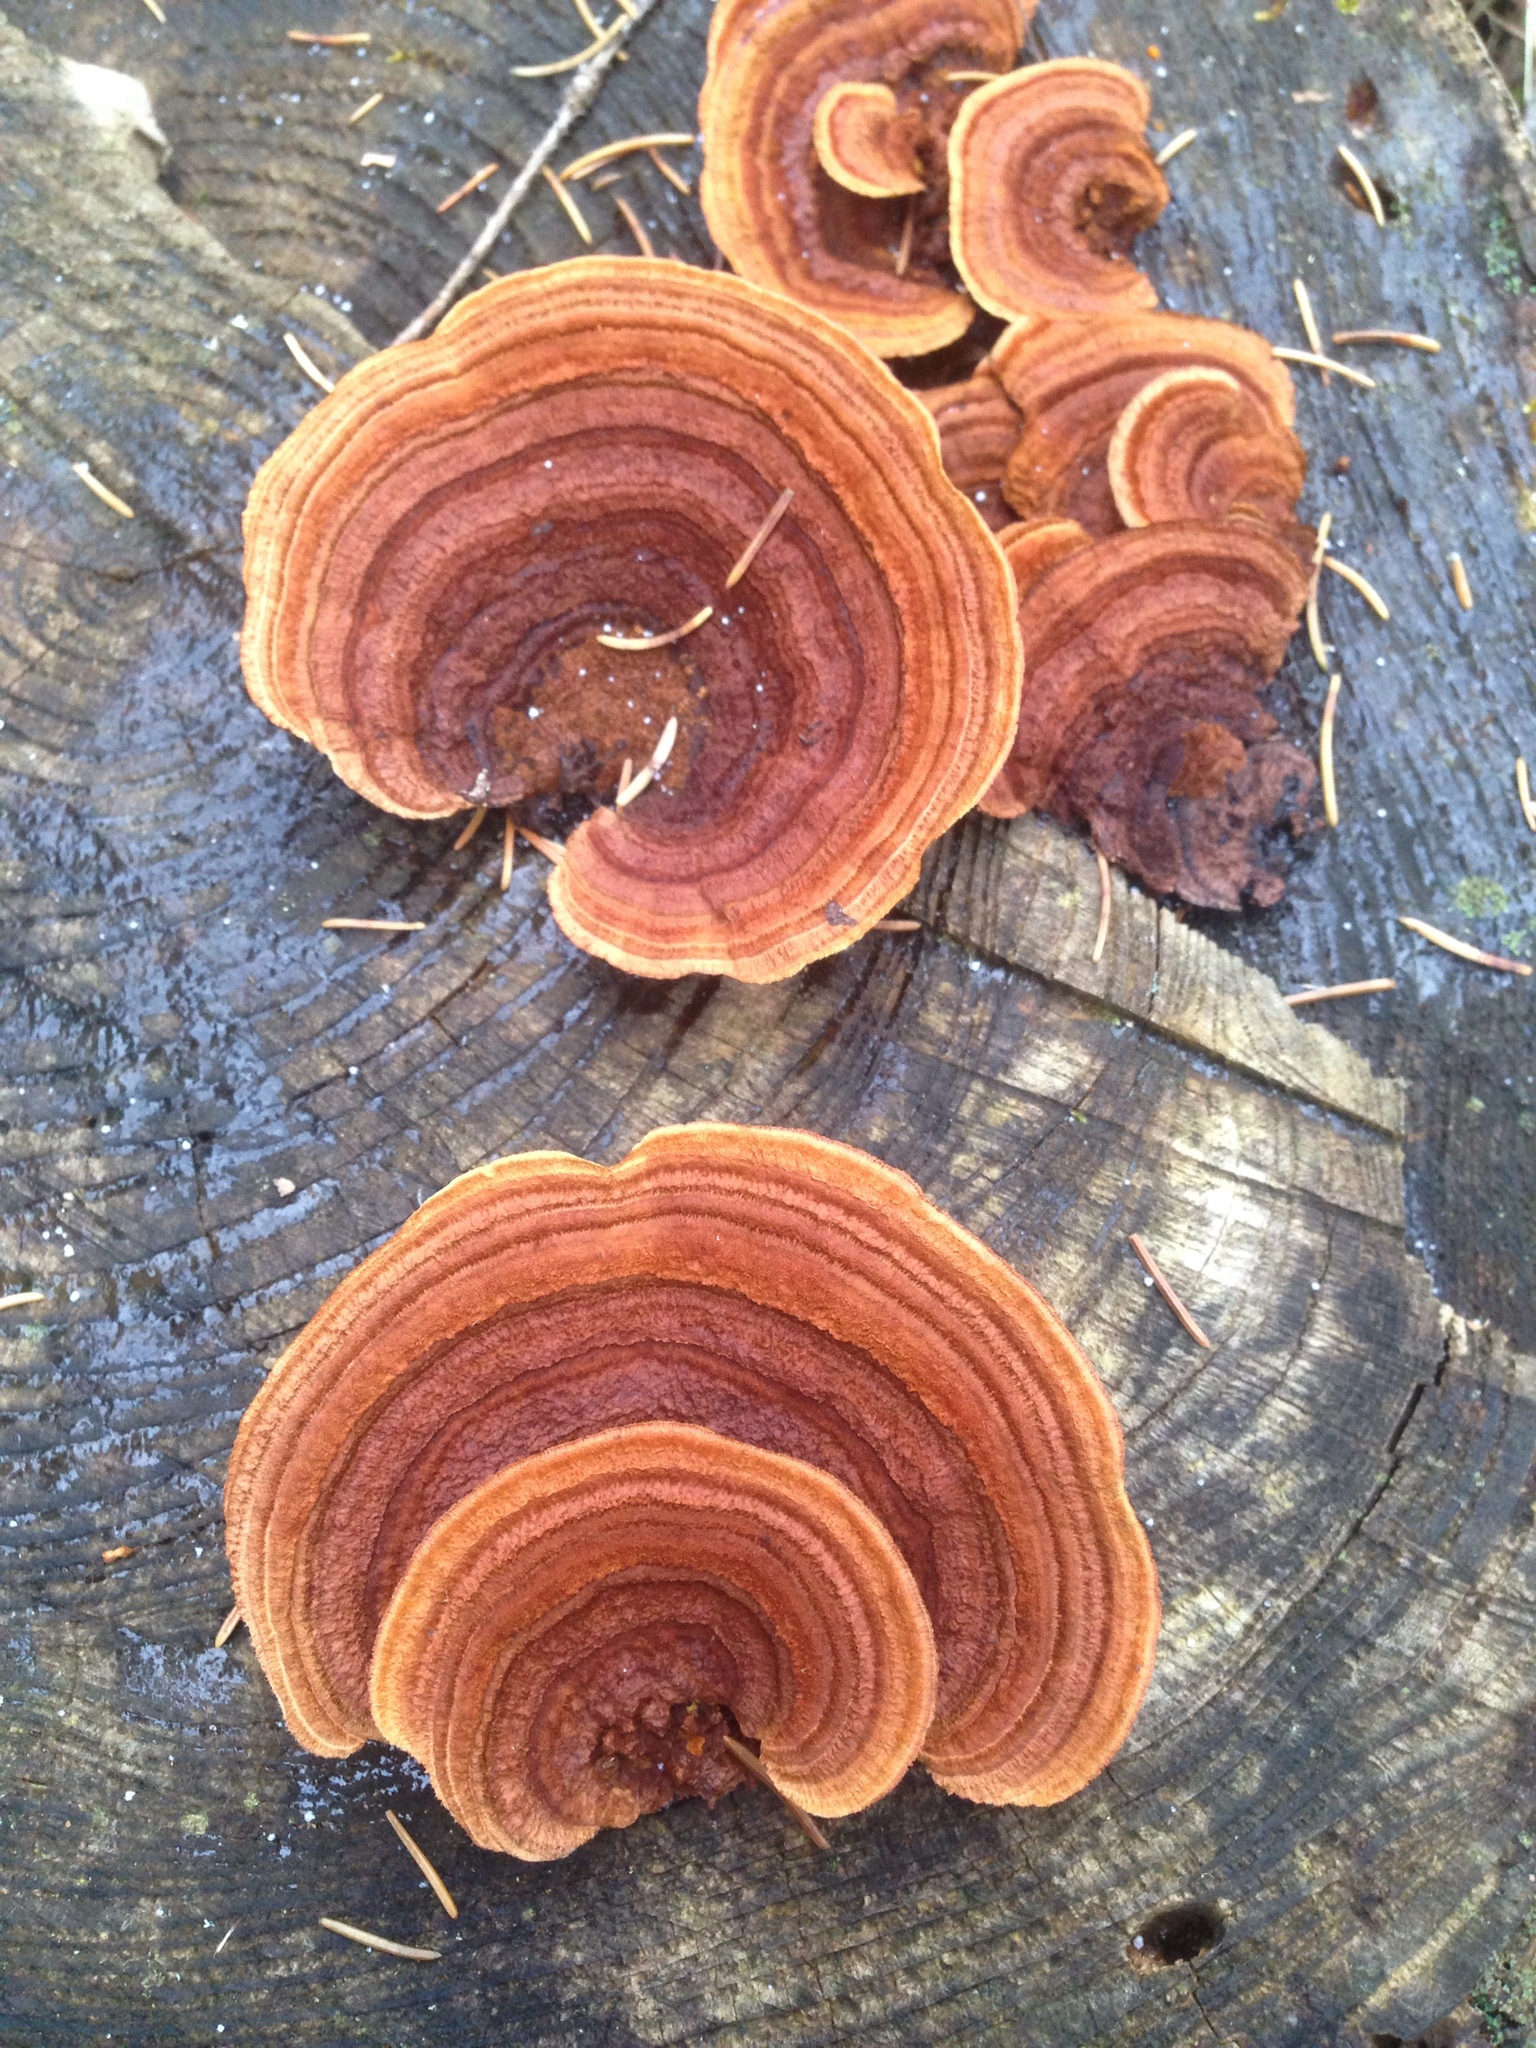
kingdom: Fungi
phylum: Basidiomycota
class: Agaricomycetes
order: Gloeophyllales
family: Gloeophyllaceae
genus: Gloeophyllum
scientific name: Gloeophyllum sepiarium
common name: Conifer mazegill
